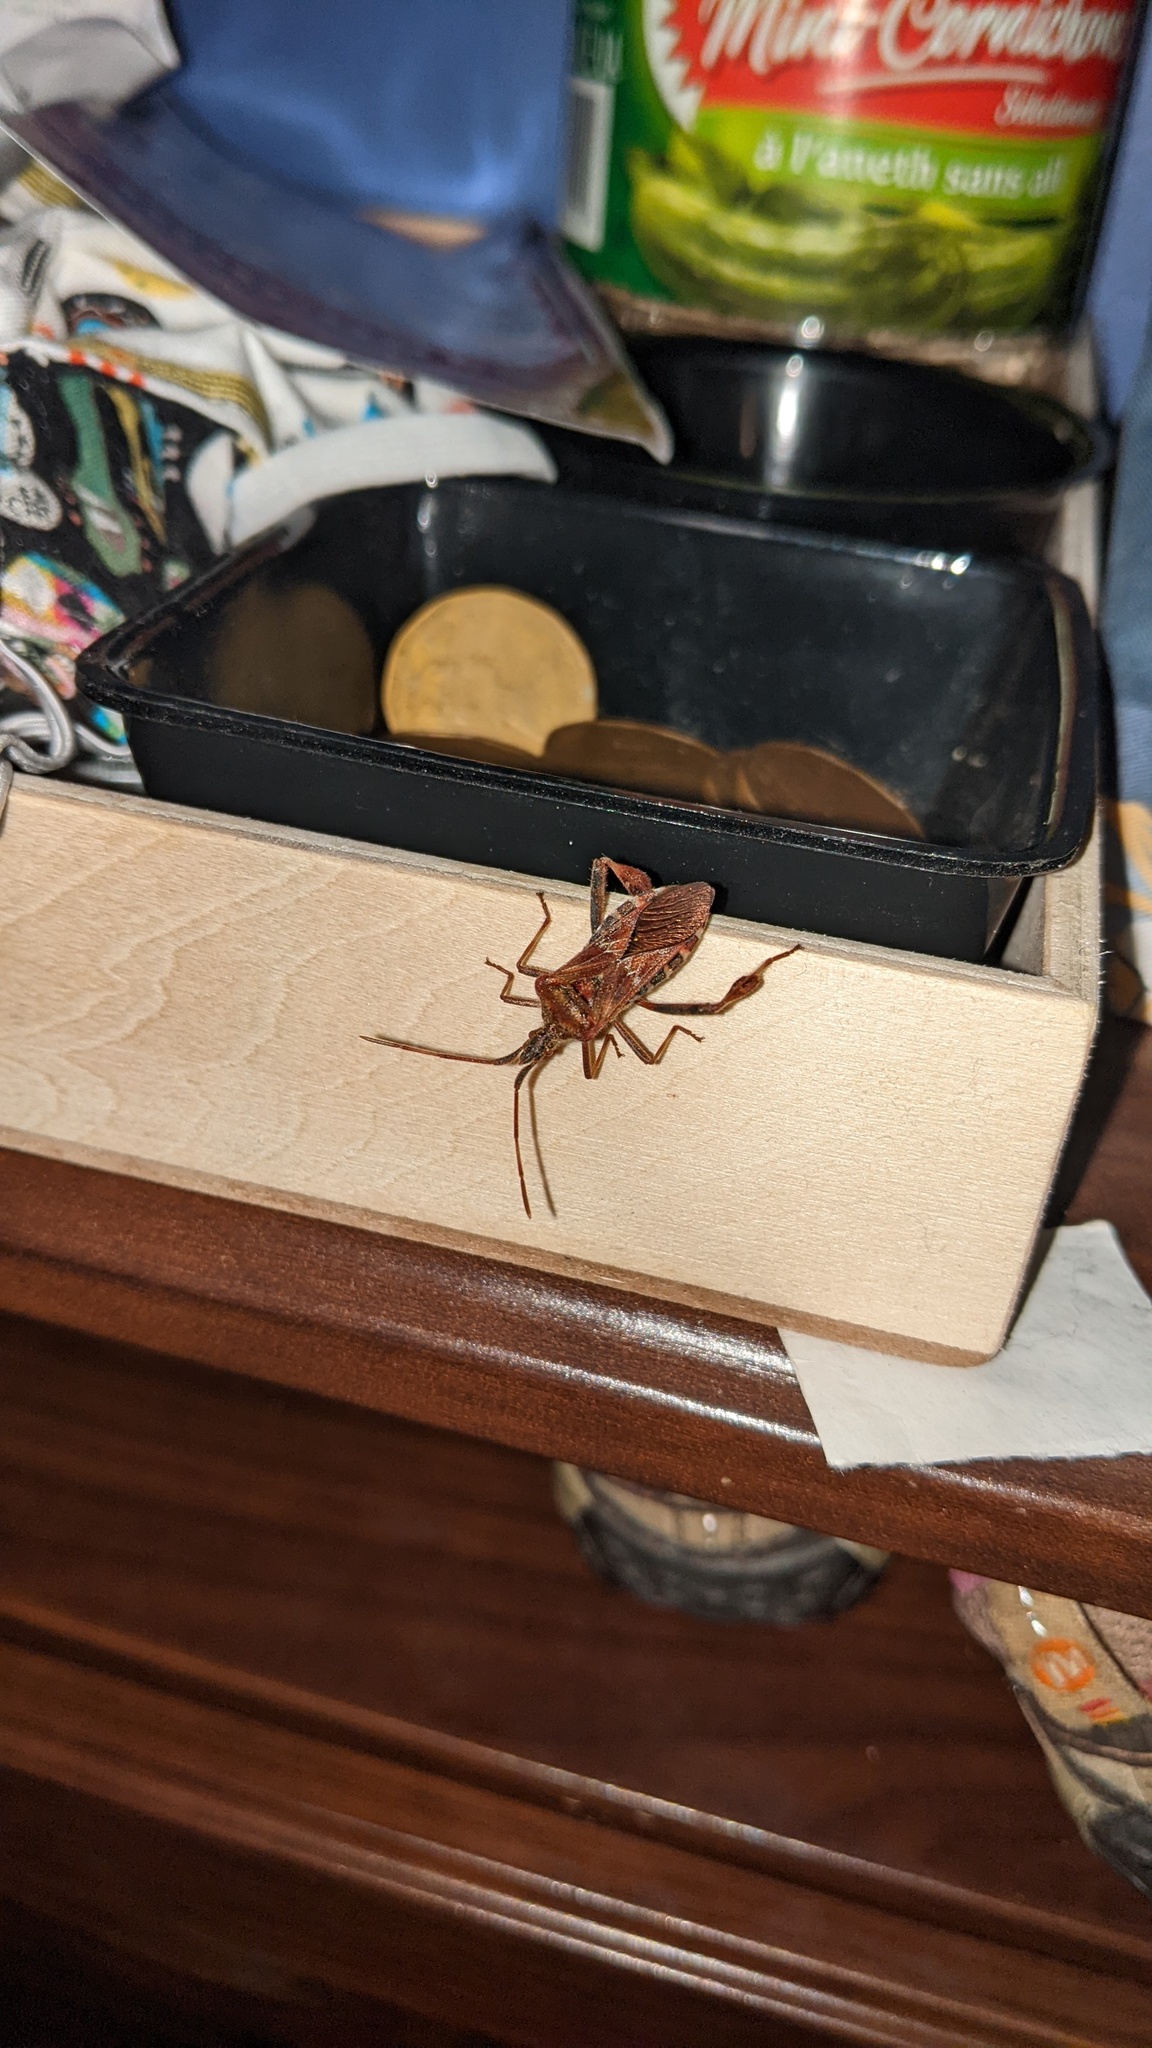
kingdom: Animalia
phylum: Arthropoda
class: Insecta
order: Hemiptera
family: Coreidae
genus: Leptoglossus
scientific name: Leptoglossus occidentalis
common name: Western conifer-seed bug
